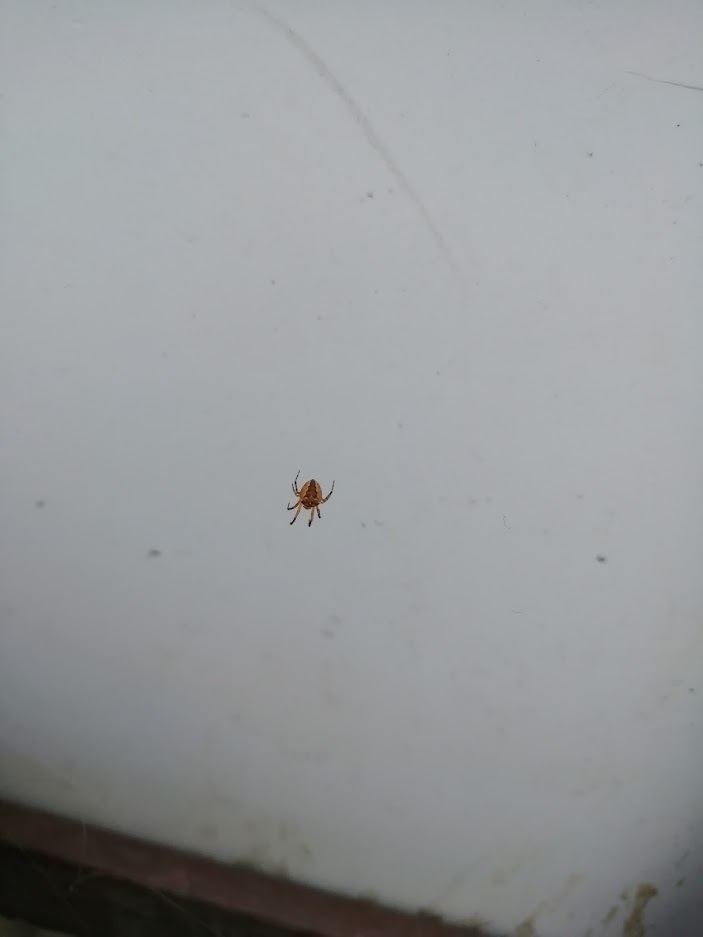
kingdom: Animalia
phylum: Arthropoda
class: Arachnida
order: Araneae
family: Araneidae
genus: Araneus
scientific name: Araneus diadematus
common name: Cross orbweaver
